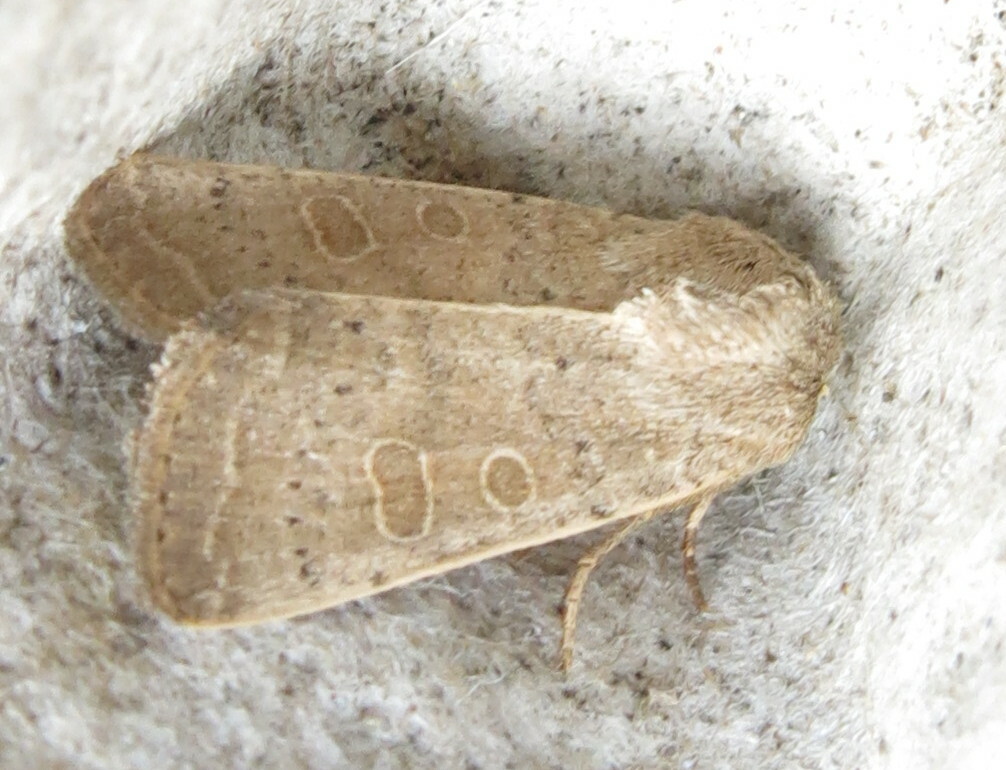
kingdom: Animalia
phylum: Arthropoda
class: Insecta
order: Lepidoptera
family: Noctuidae
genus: Hoplodrina
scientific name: Hoplodrina ambigua
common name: Vine's rustic
